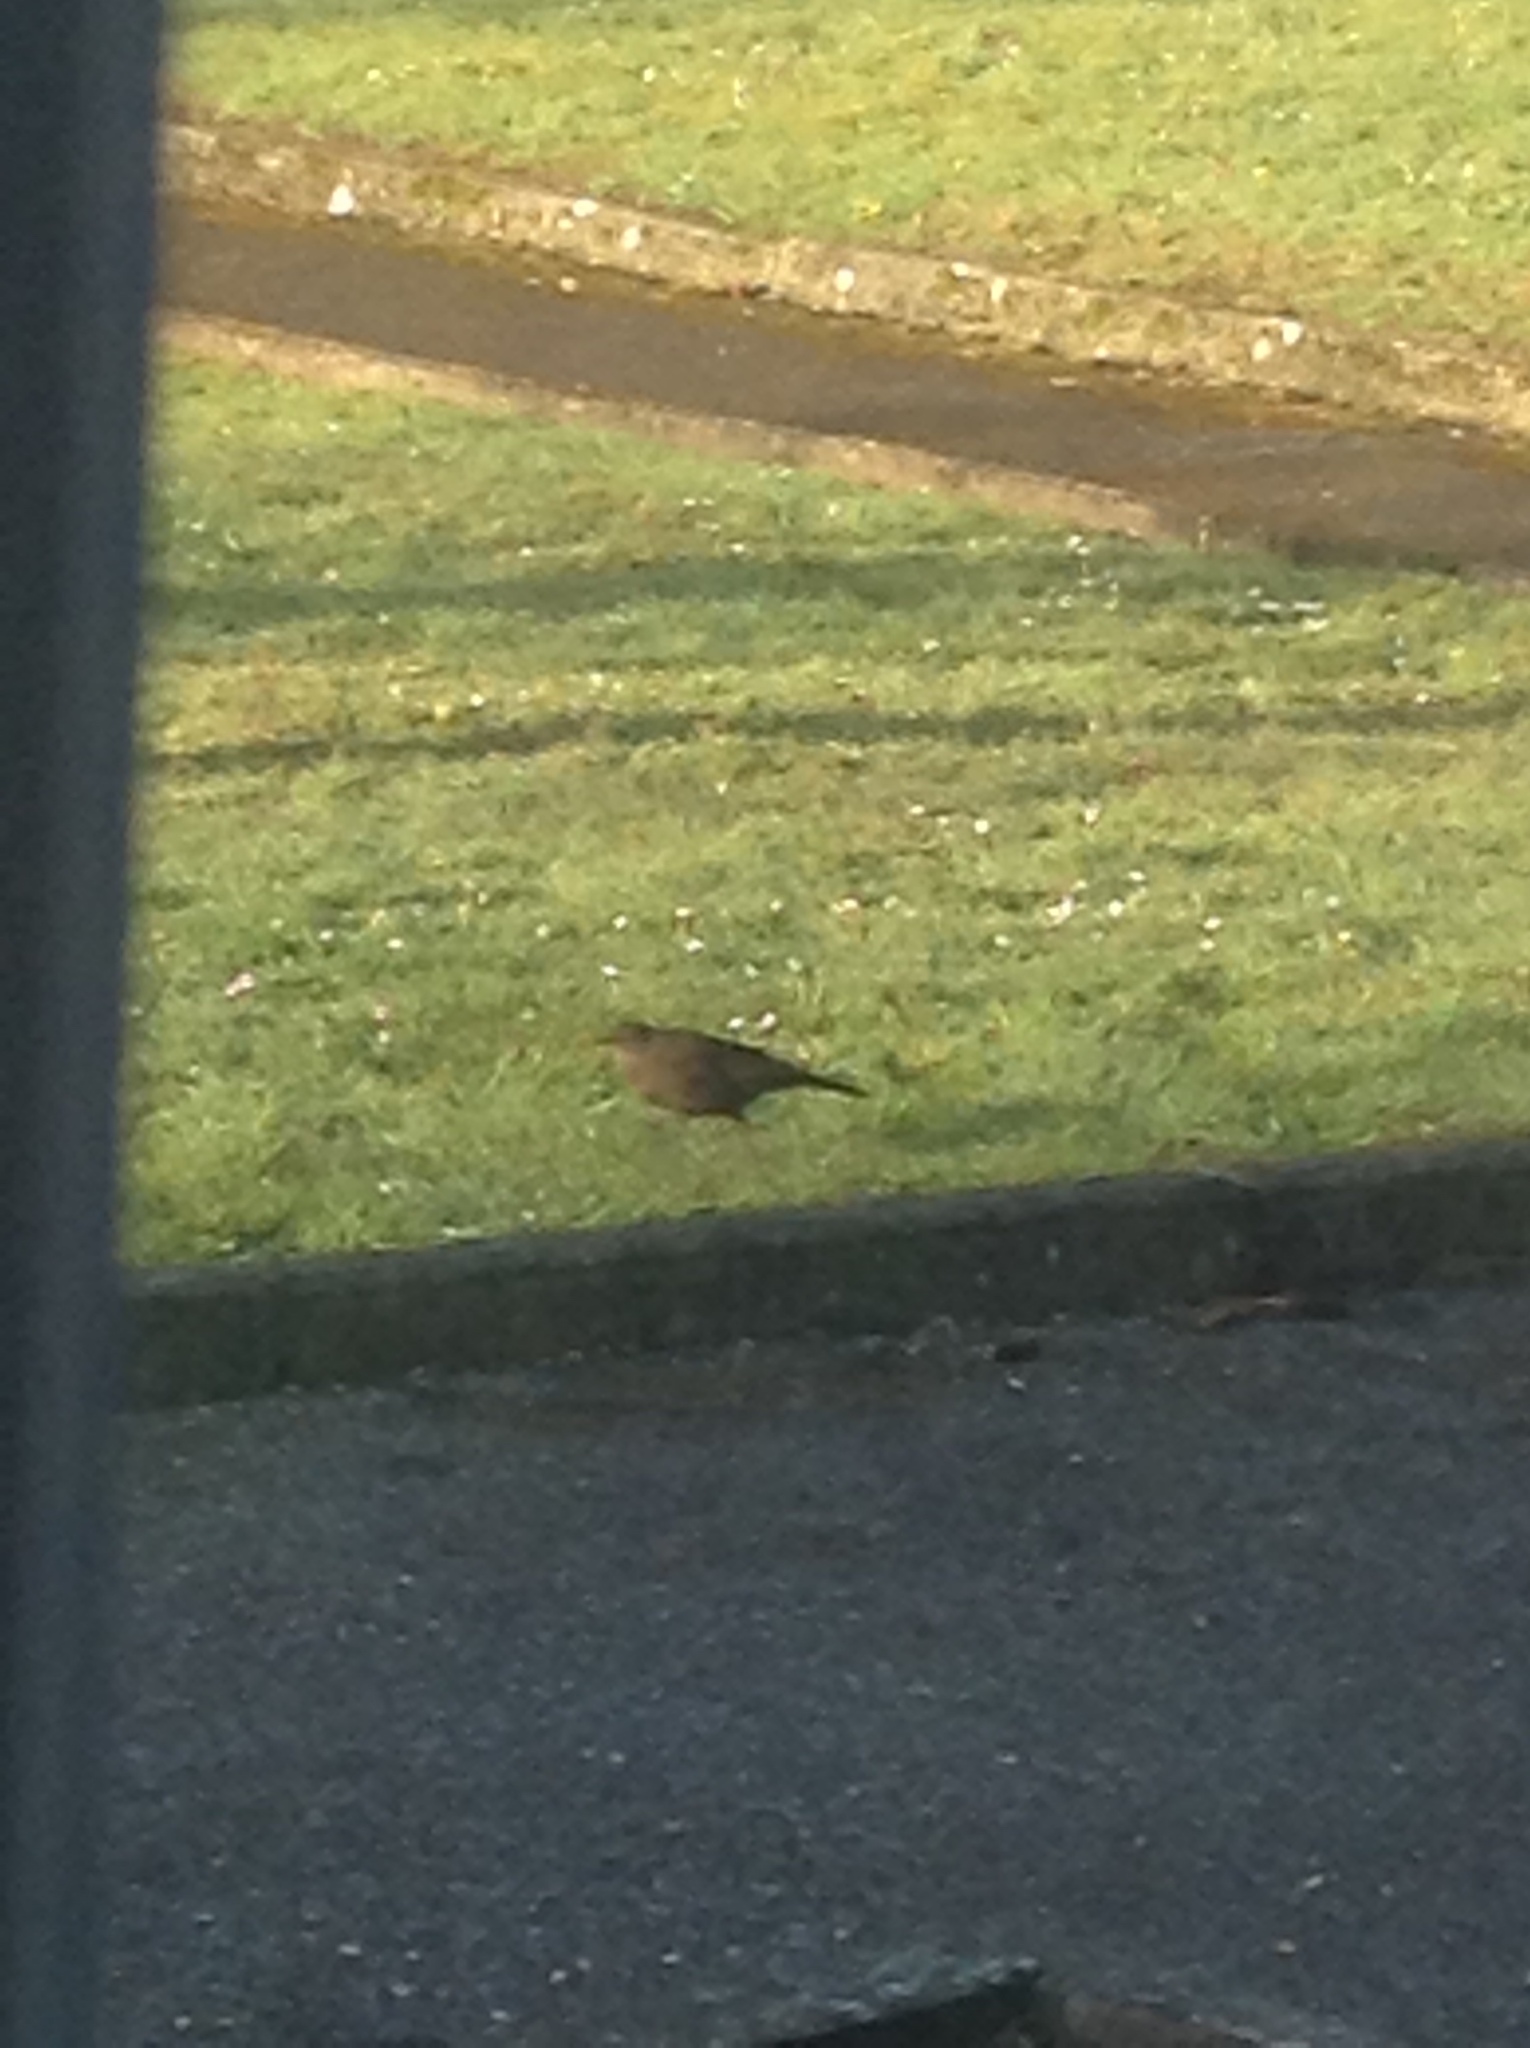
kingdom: Animalia
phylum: Chordata
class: Aves
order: Passeriformes
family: Turdidae
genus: Turdus
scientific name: Turdus merula
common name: Common blackbird
